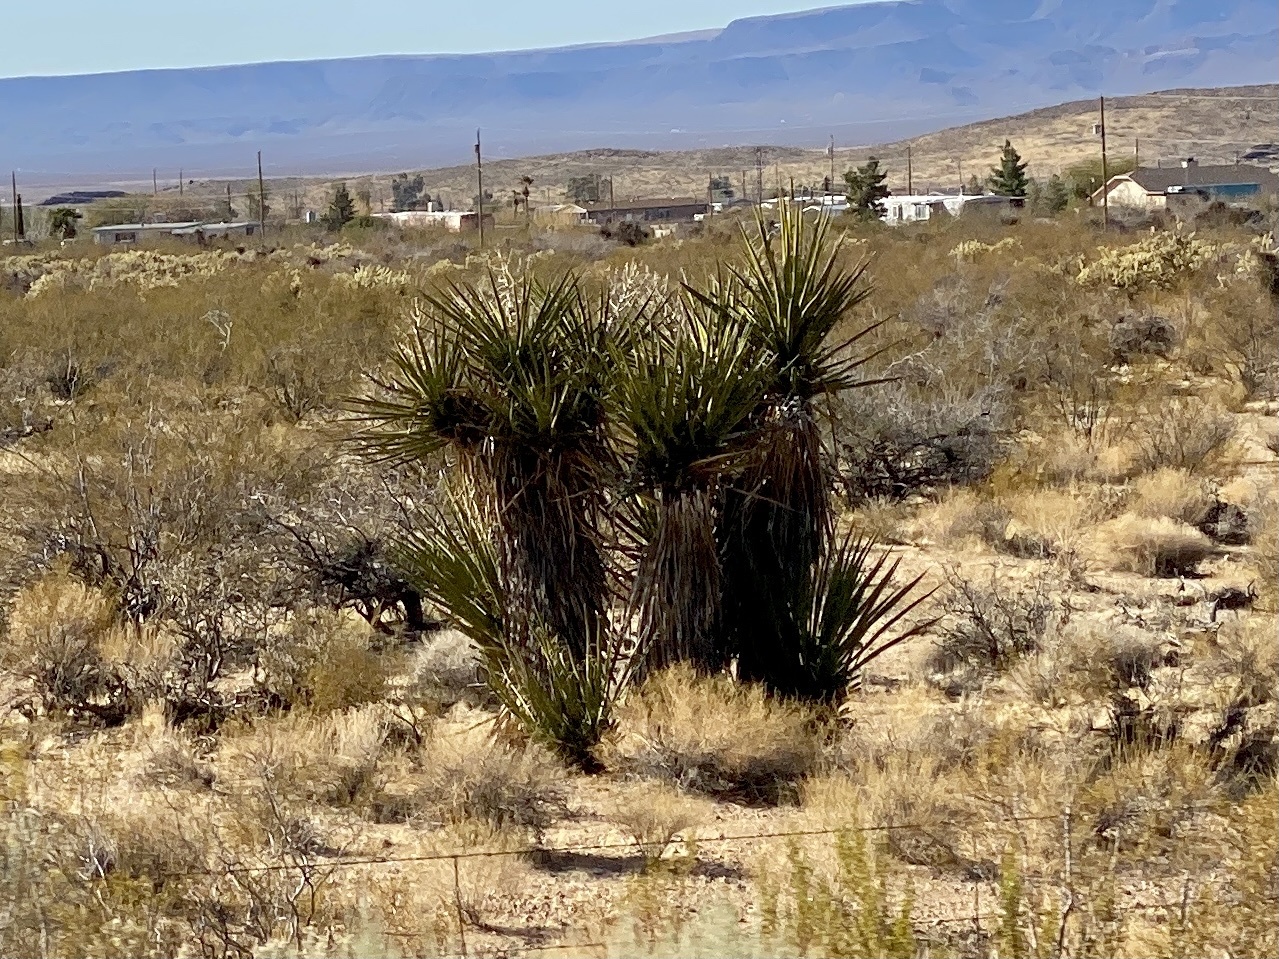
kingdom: Plantae
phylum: Tracheophyta
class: Liliopsida
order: Asparagales
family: Asparagaceae
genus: Yucca
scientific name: Yucca schidigera
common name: Mojave yucca
